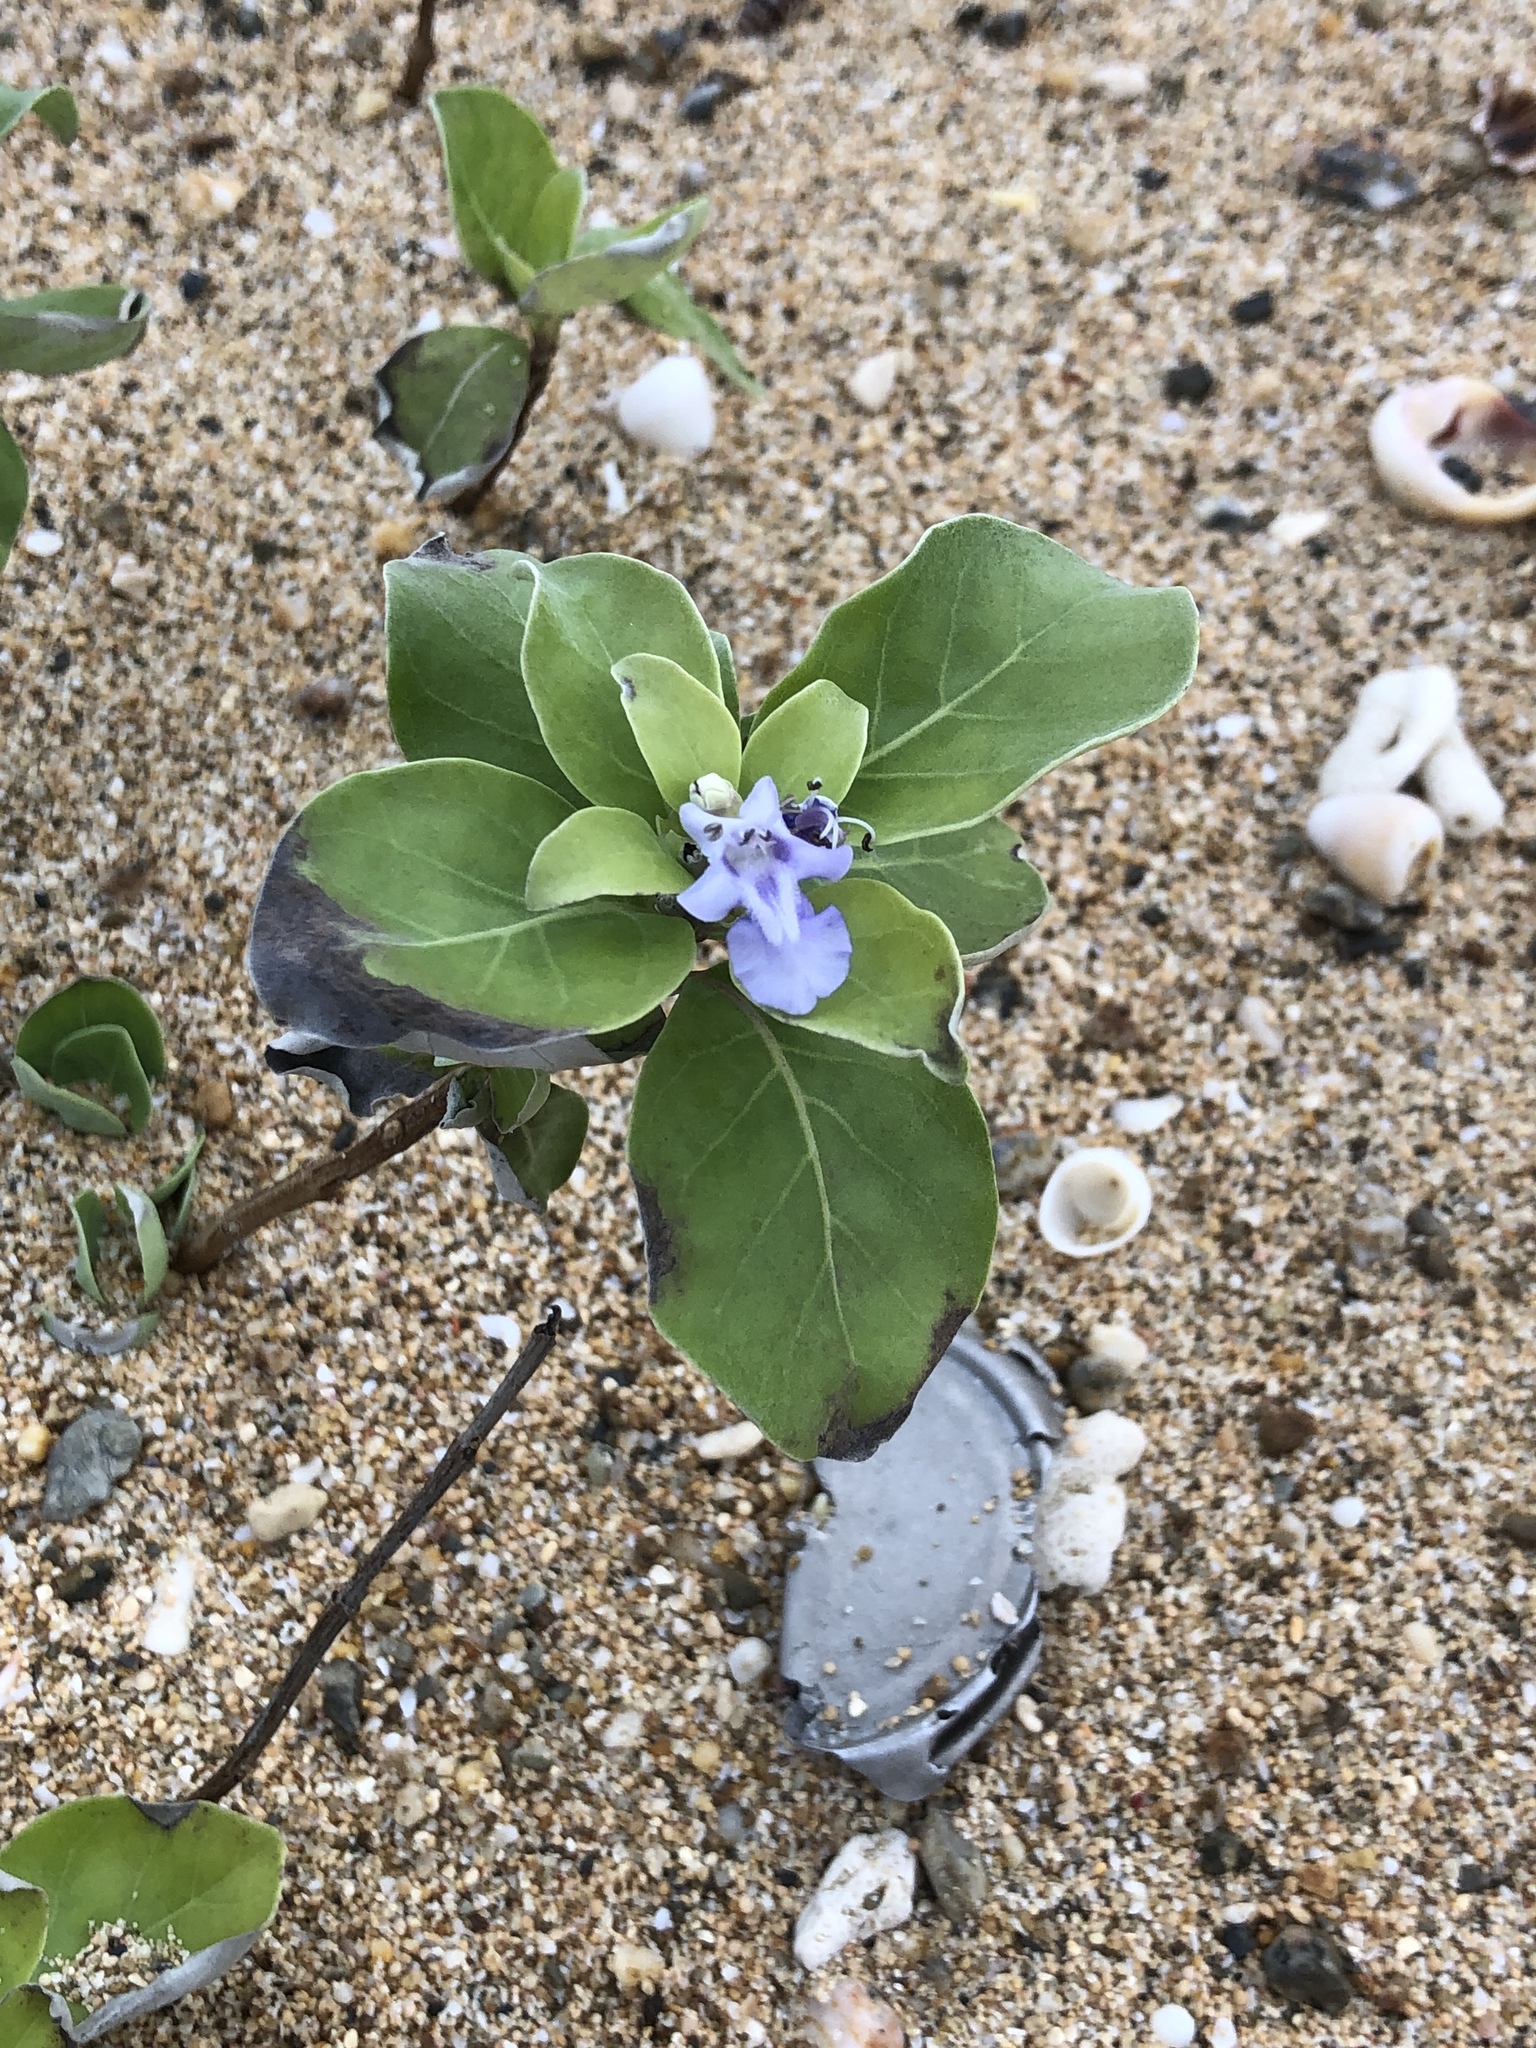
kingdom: Plantae
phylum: Tracheophyta
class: Magnoliopsida
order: Lamiales
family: Lamiaceae
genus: Vitex
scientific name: Vitex rotundifolia
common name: Beach vitex
